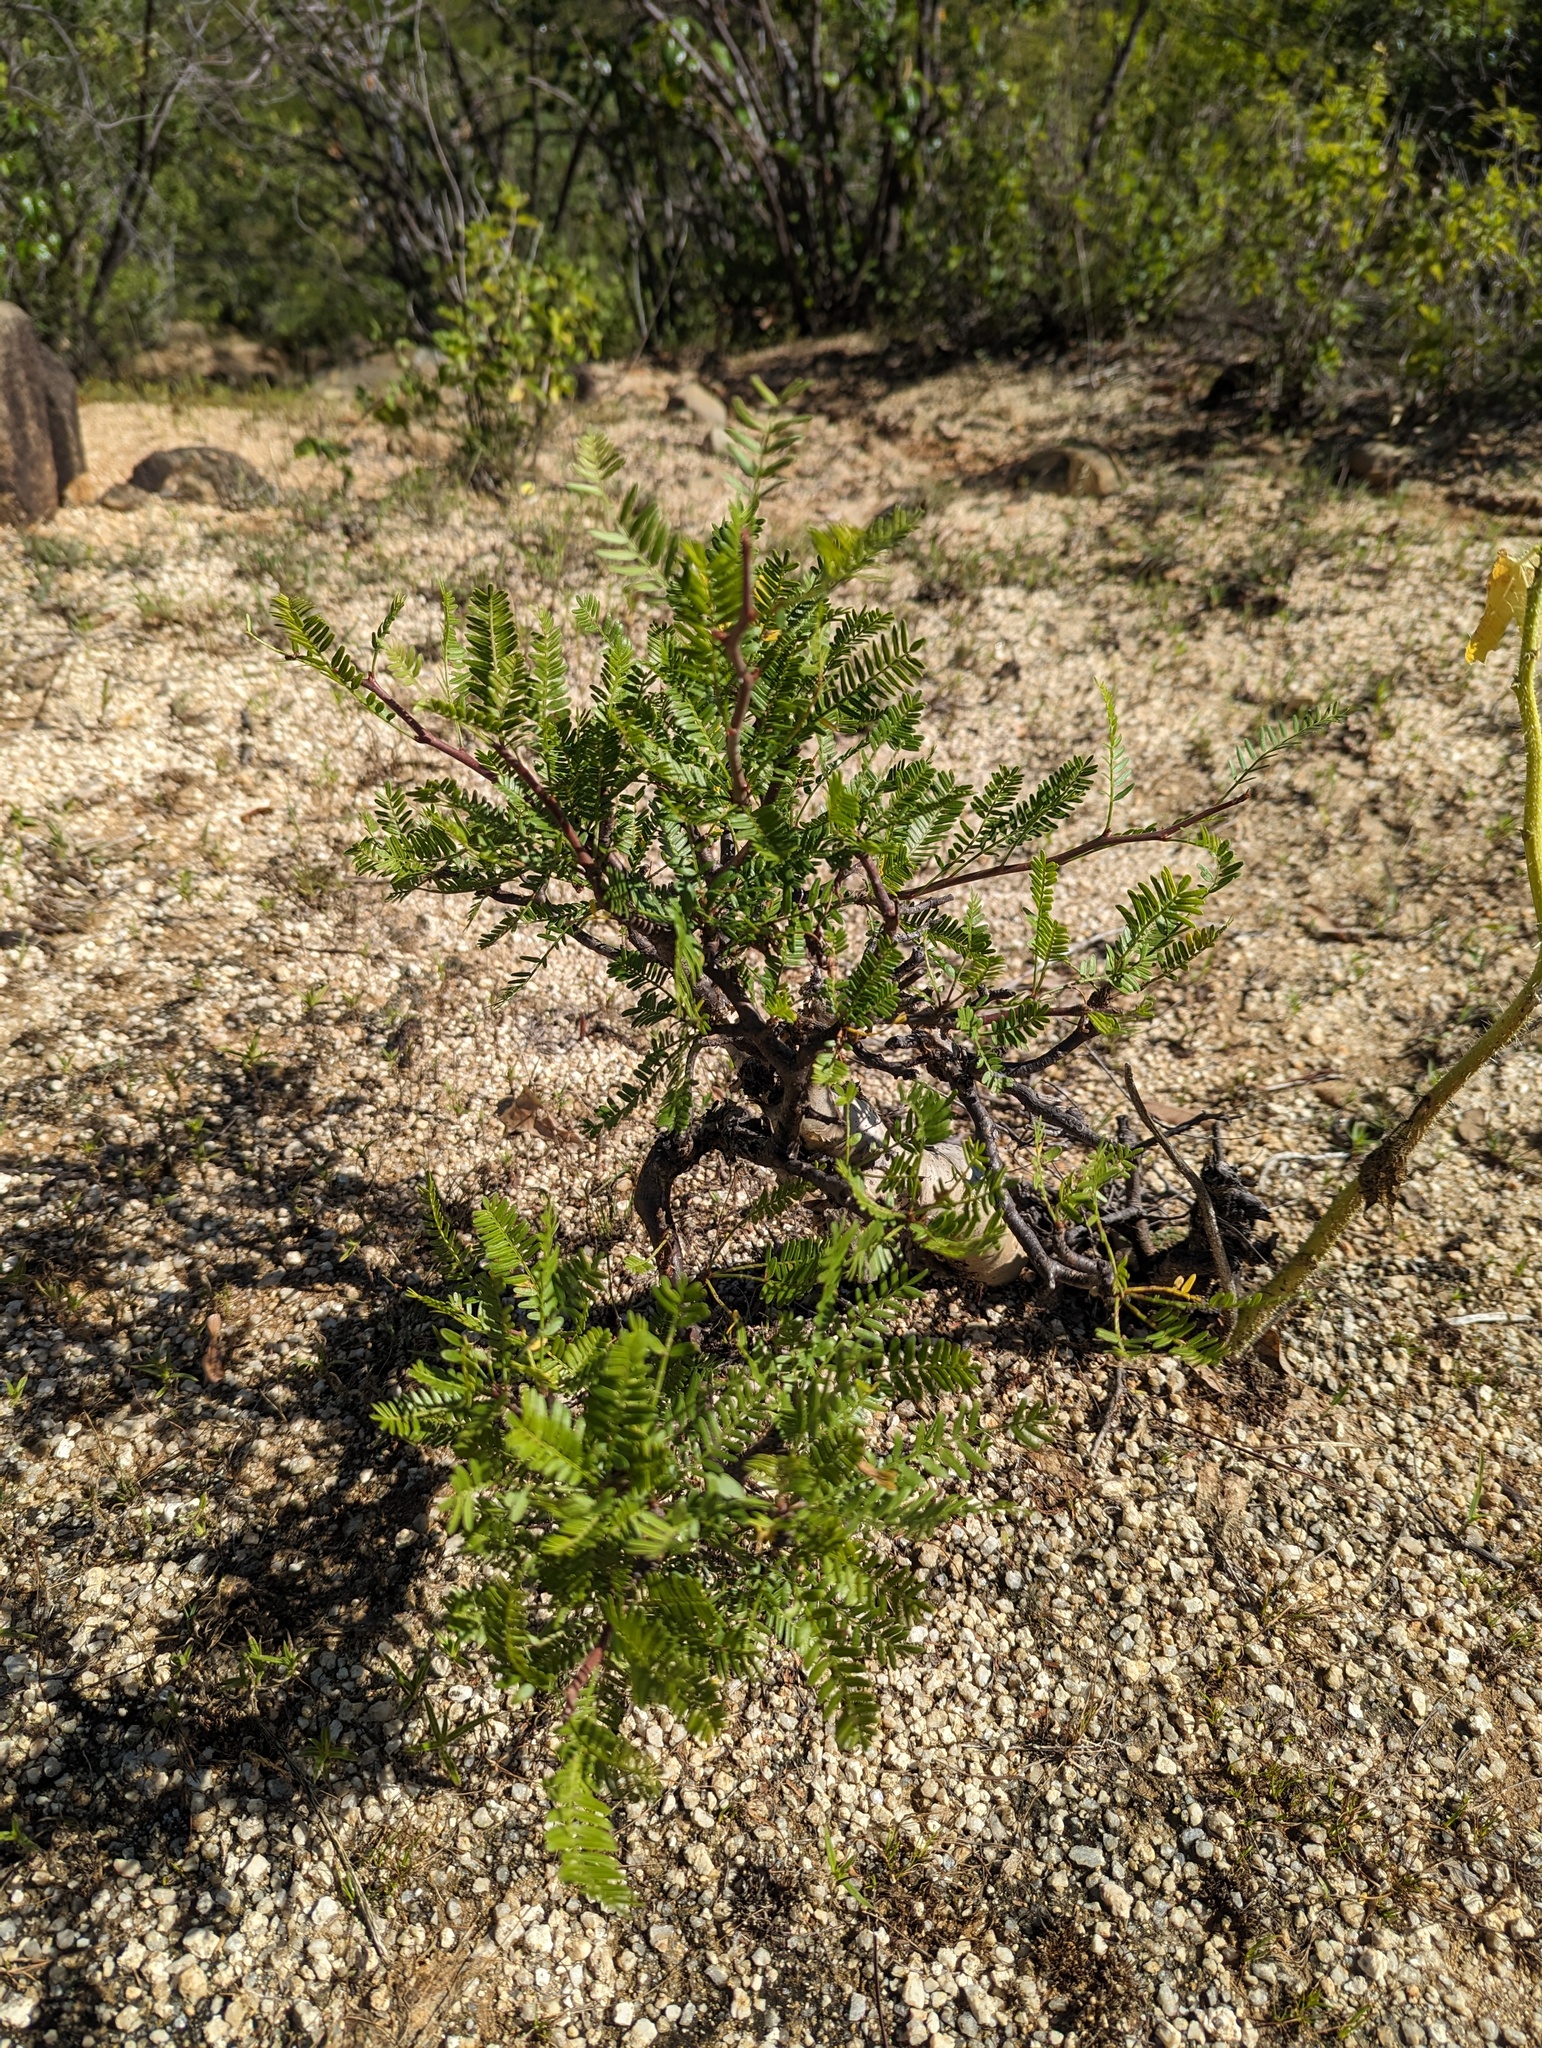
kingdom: Plantae
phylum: Tracheophyta
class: Magnoliopsida
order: Sapindales
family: Burseraceae
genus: Bursera
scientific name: Bursera microphylla
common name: Elephant tree
